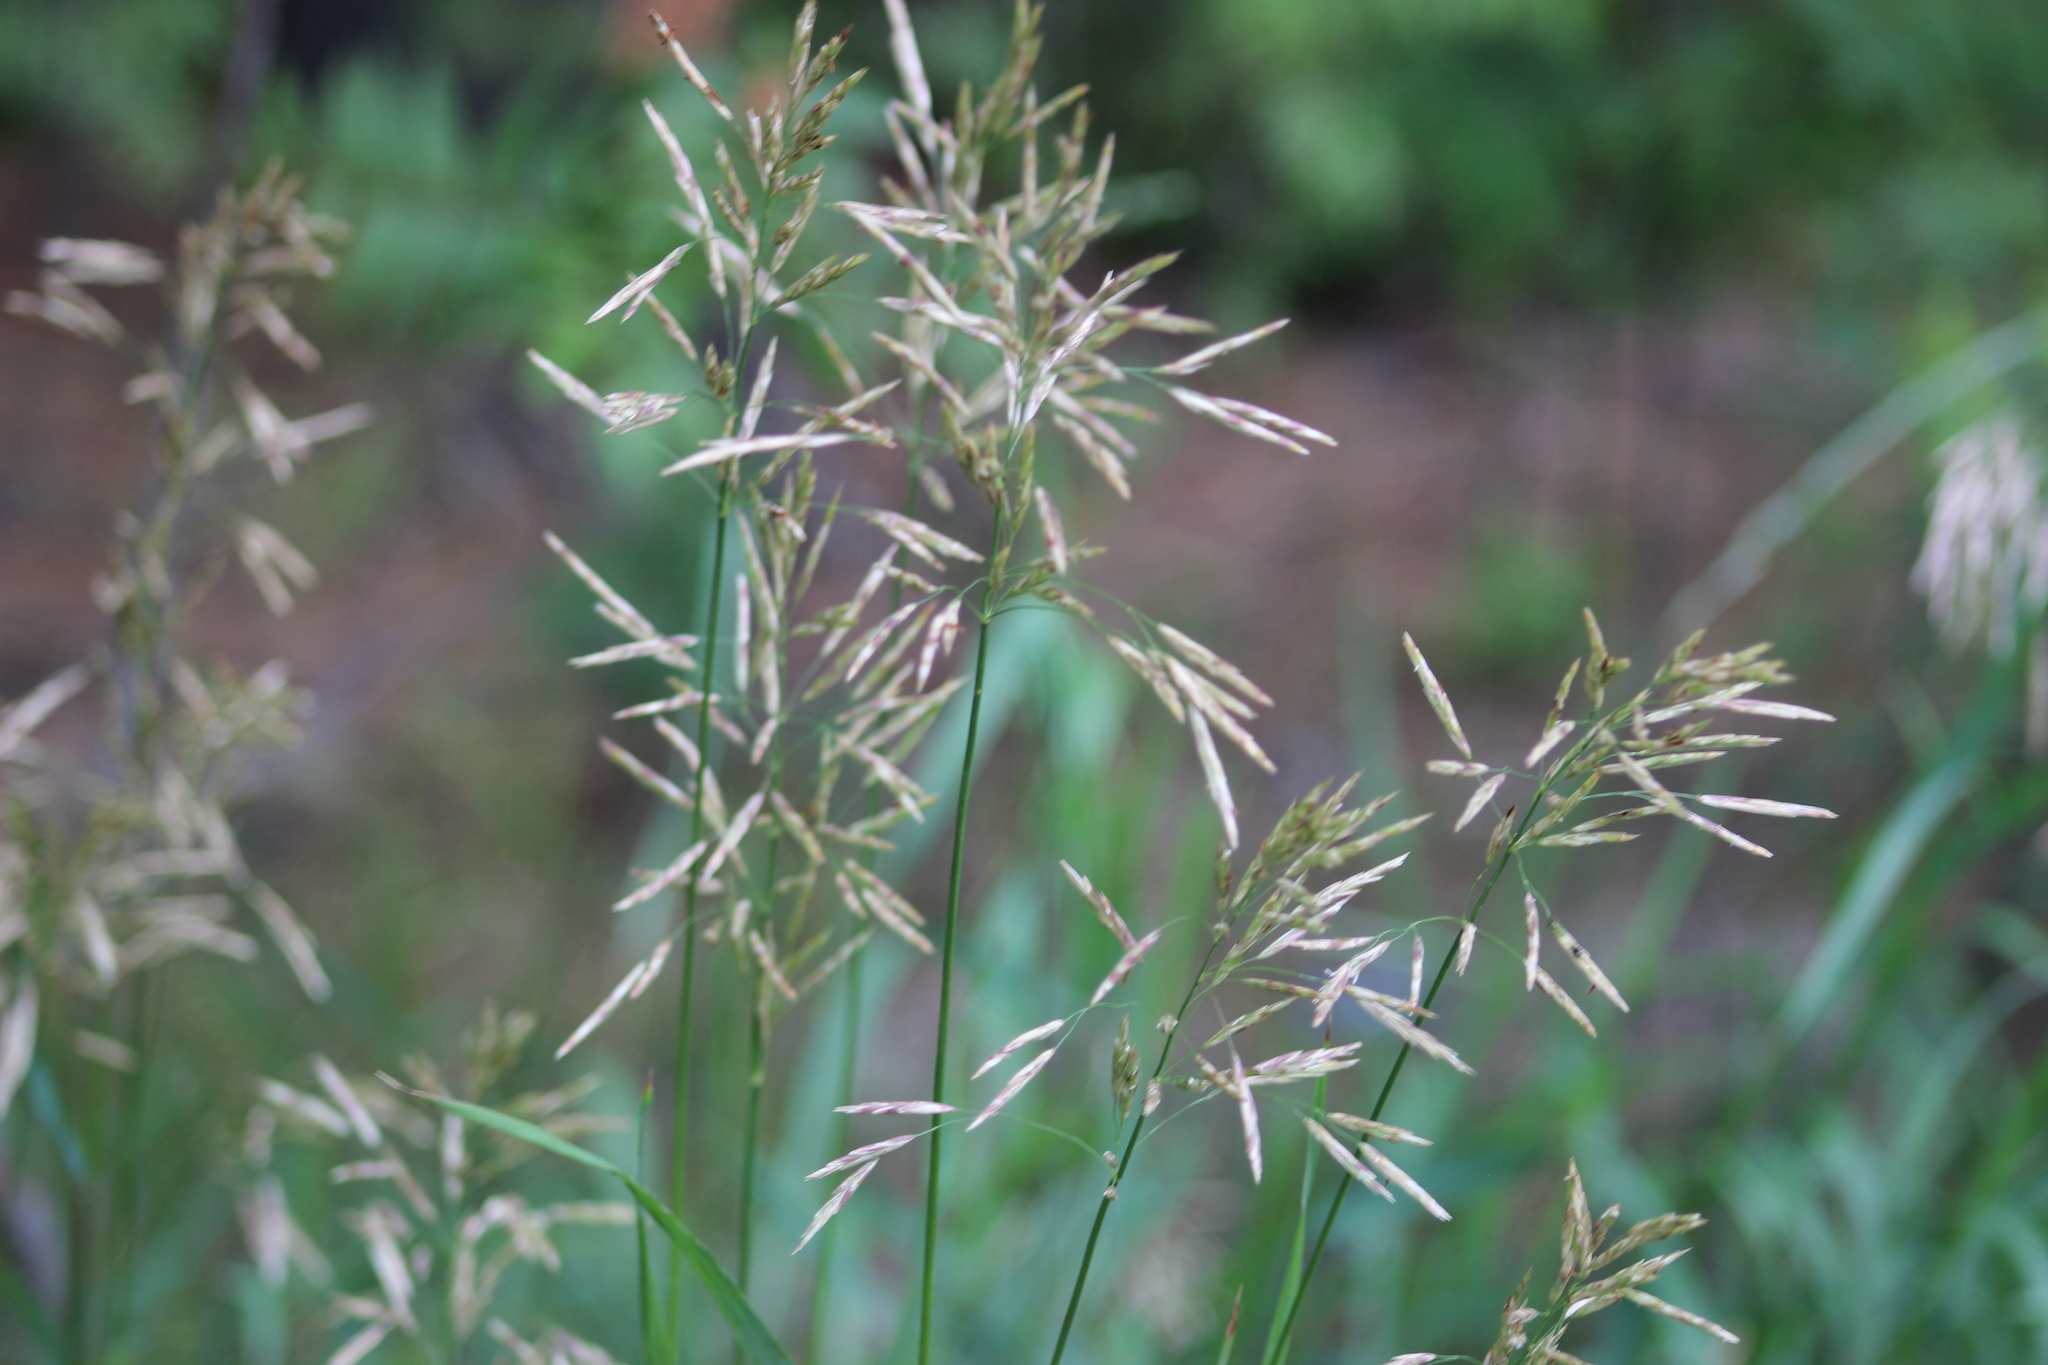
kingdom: Plantae
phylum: Tracheophyta
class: Liliopsida
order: Poales
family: Poaceae
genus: Bromus
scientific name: Bromus inermis
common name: Smooth brome
